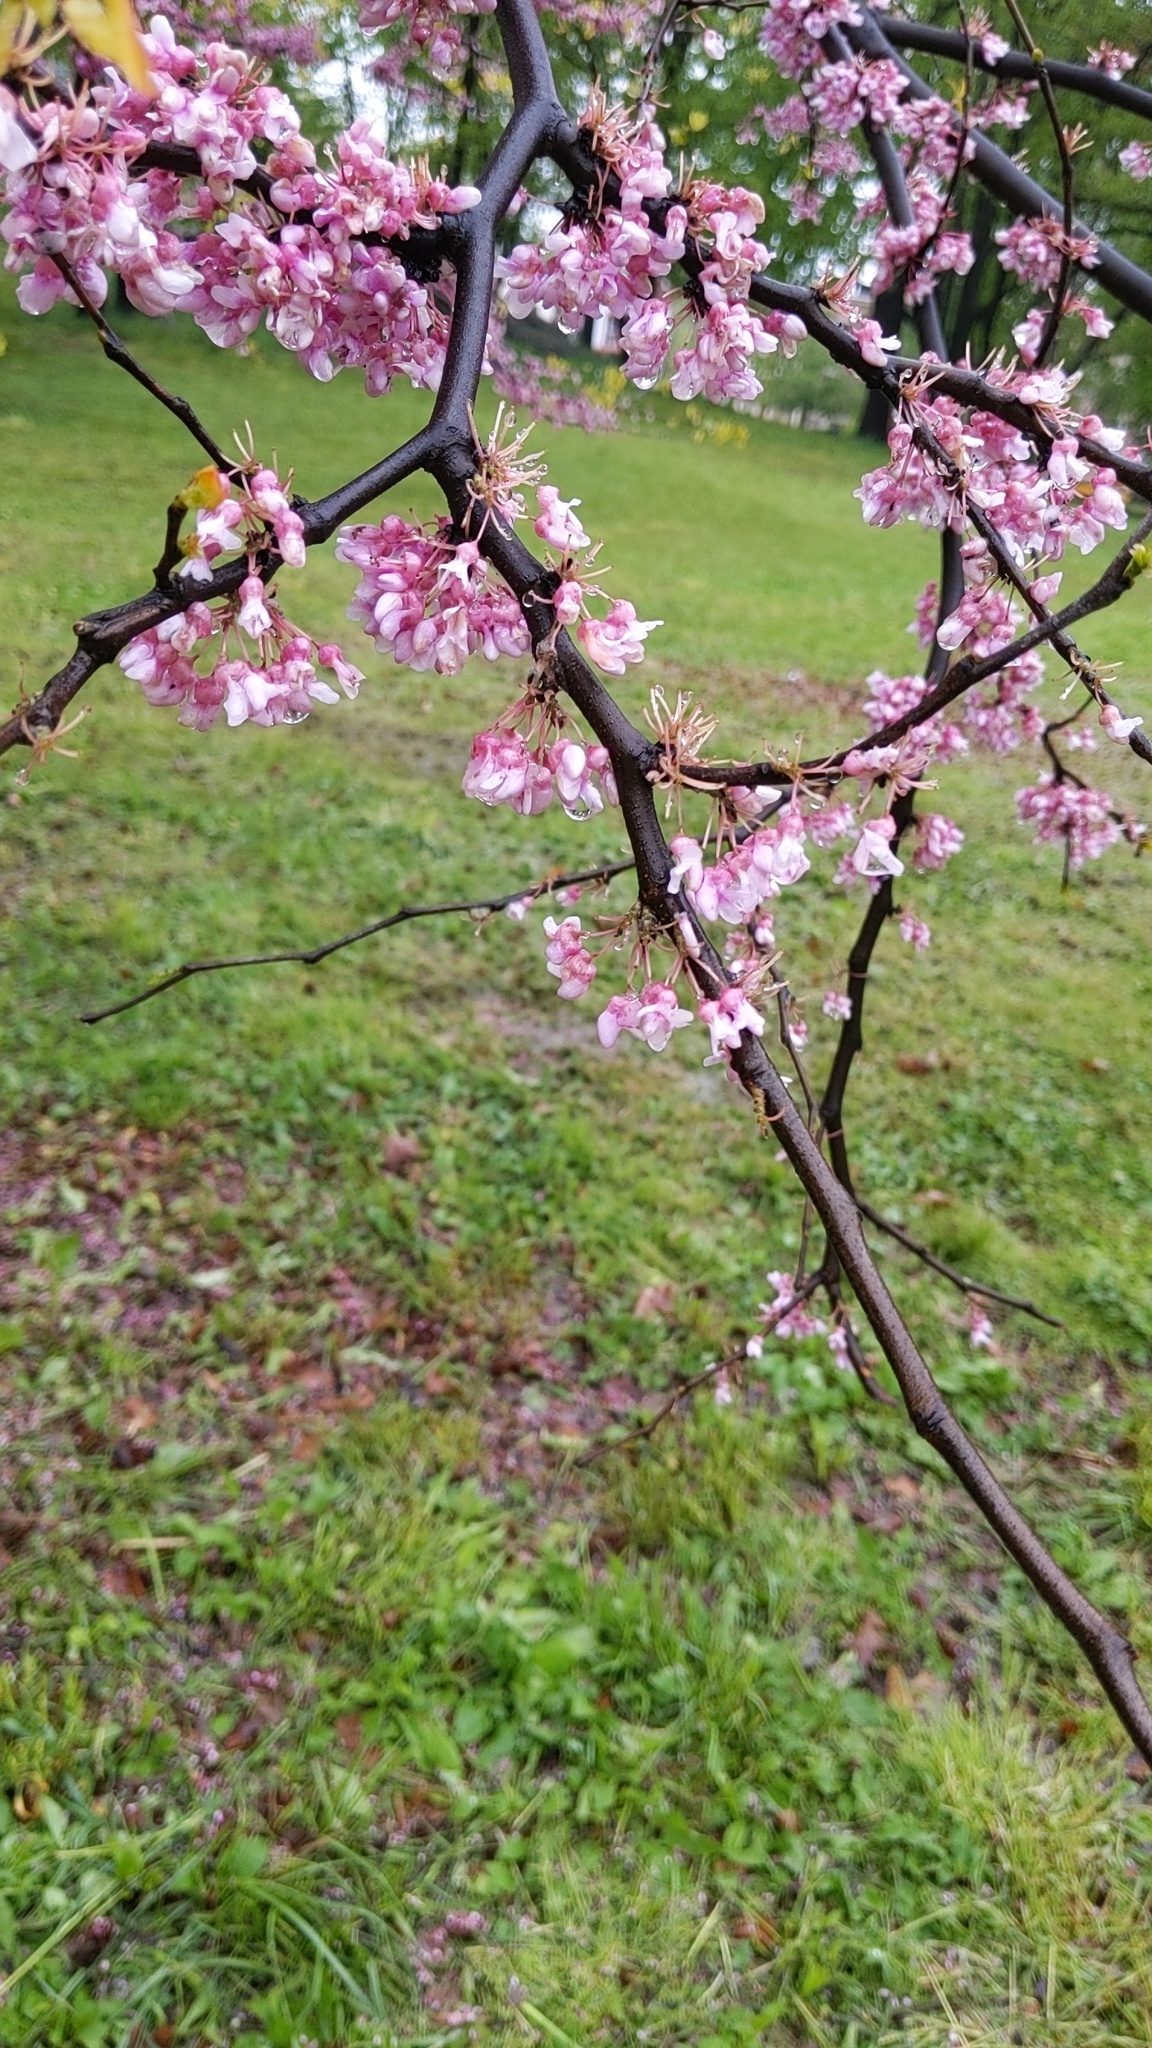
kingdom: Plantae
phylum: Tracheophyta
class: Magnoliopsida
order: Fabales
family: Fabaceae
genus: Cercis
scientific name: Cercis canadensis
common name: Eastern redbud
